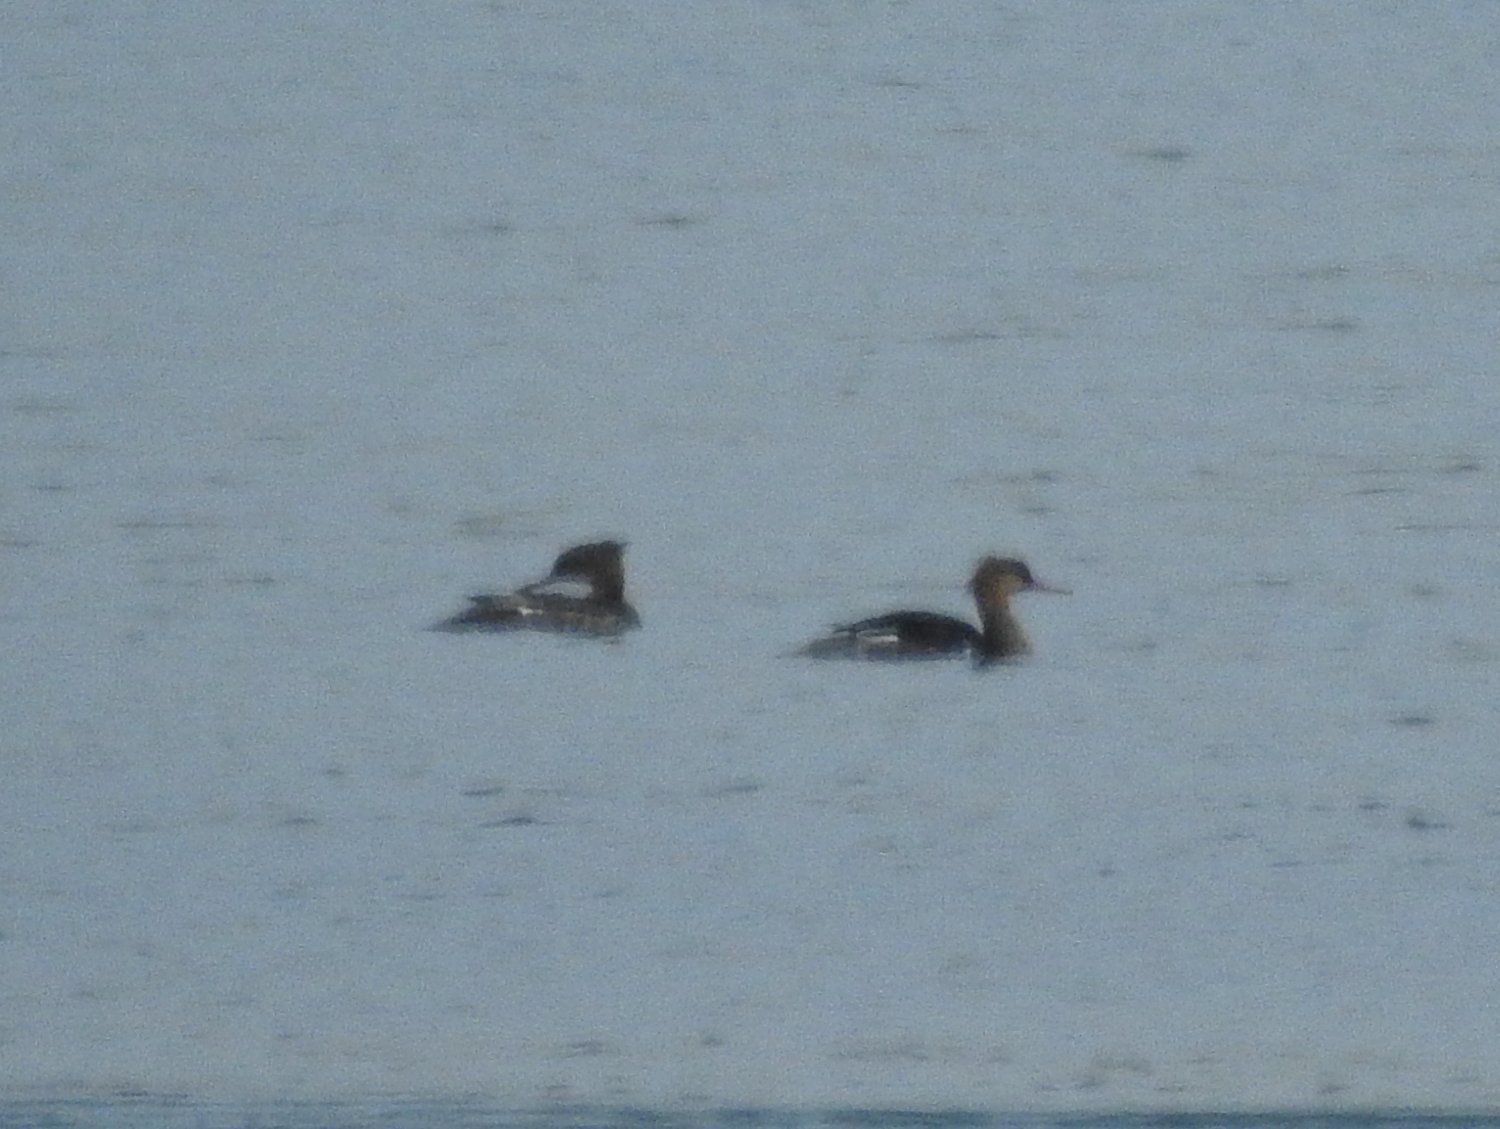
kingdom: Animalia
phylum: Chordata
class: Aves
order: Anseriformes
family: Anatidae
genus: Mergus
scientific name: Mergus serrator
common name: Red-breasted merganser
